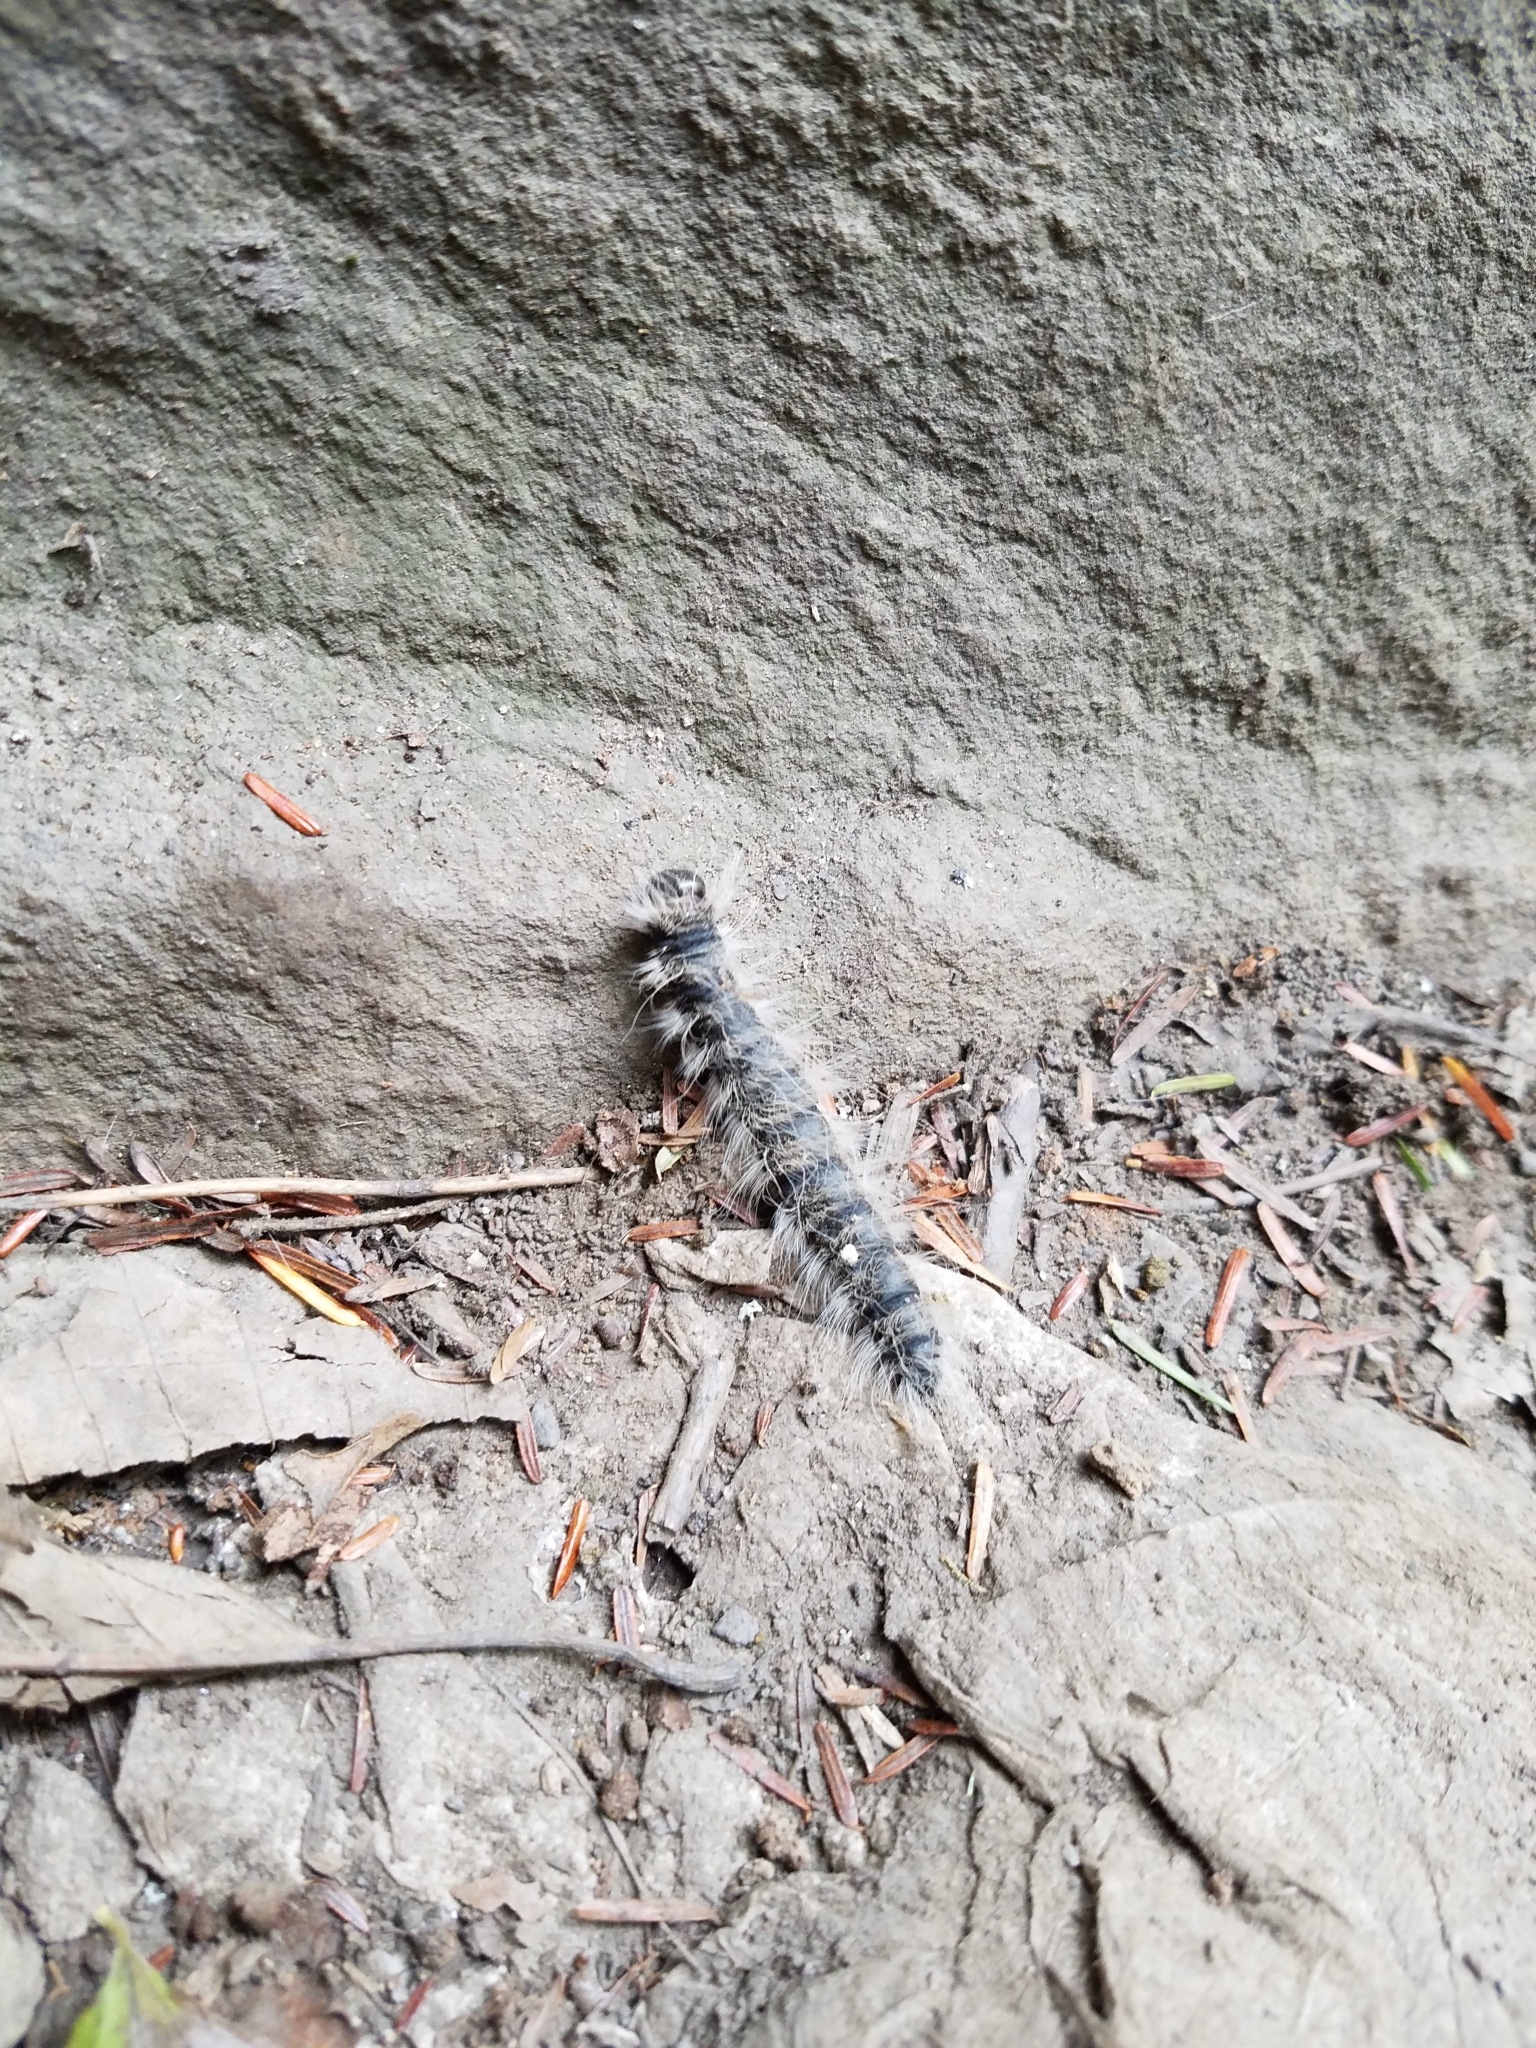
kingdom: Animalia
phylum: Arthropoda
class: Insecta
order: Lepidoptera
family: Notodontidae
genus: Datana
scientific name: Datana integerrima
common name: Walnut caterpillar
